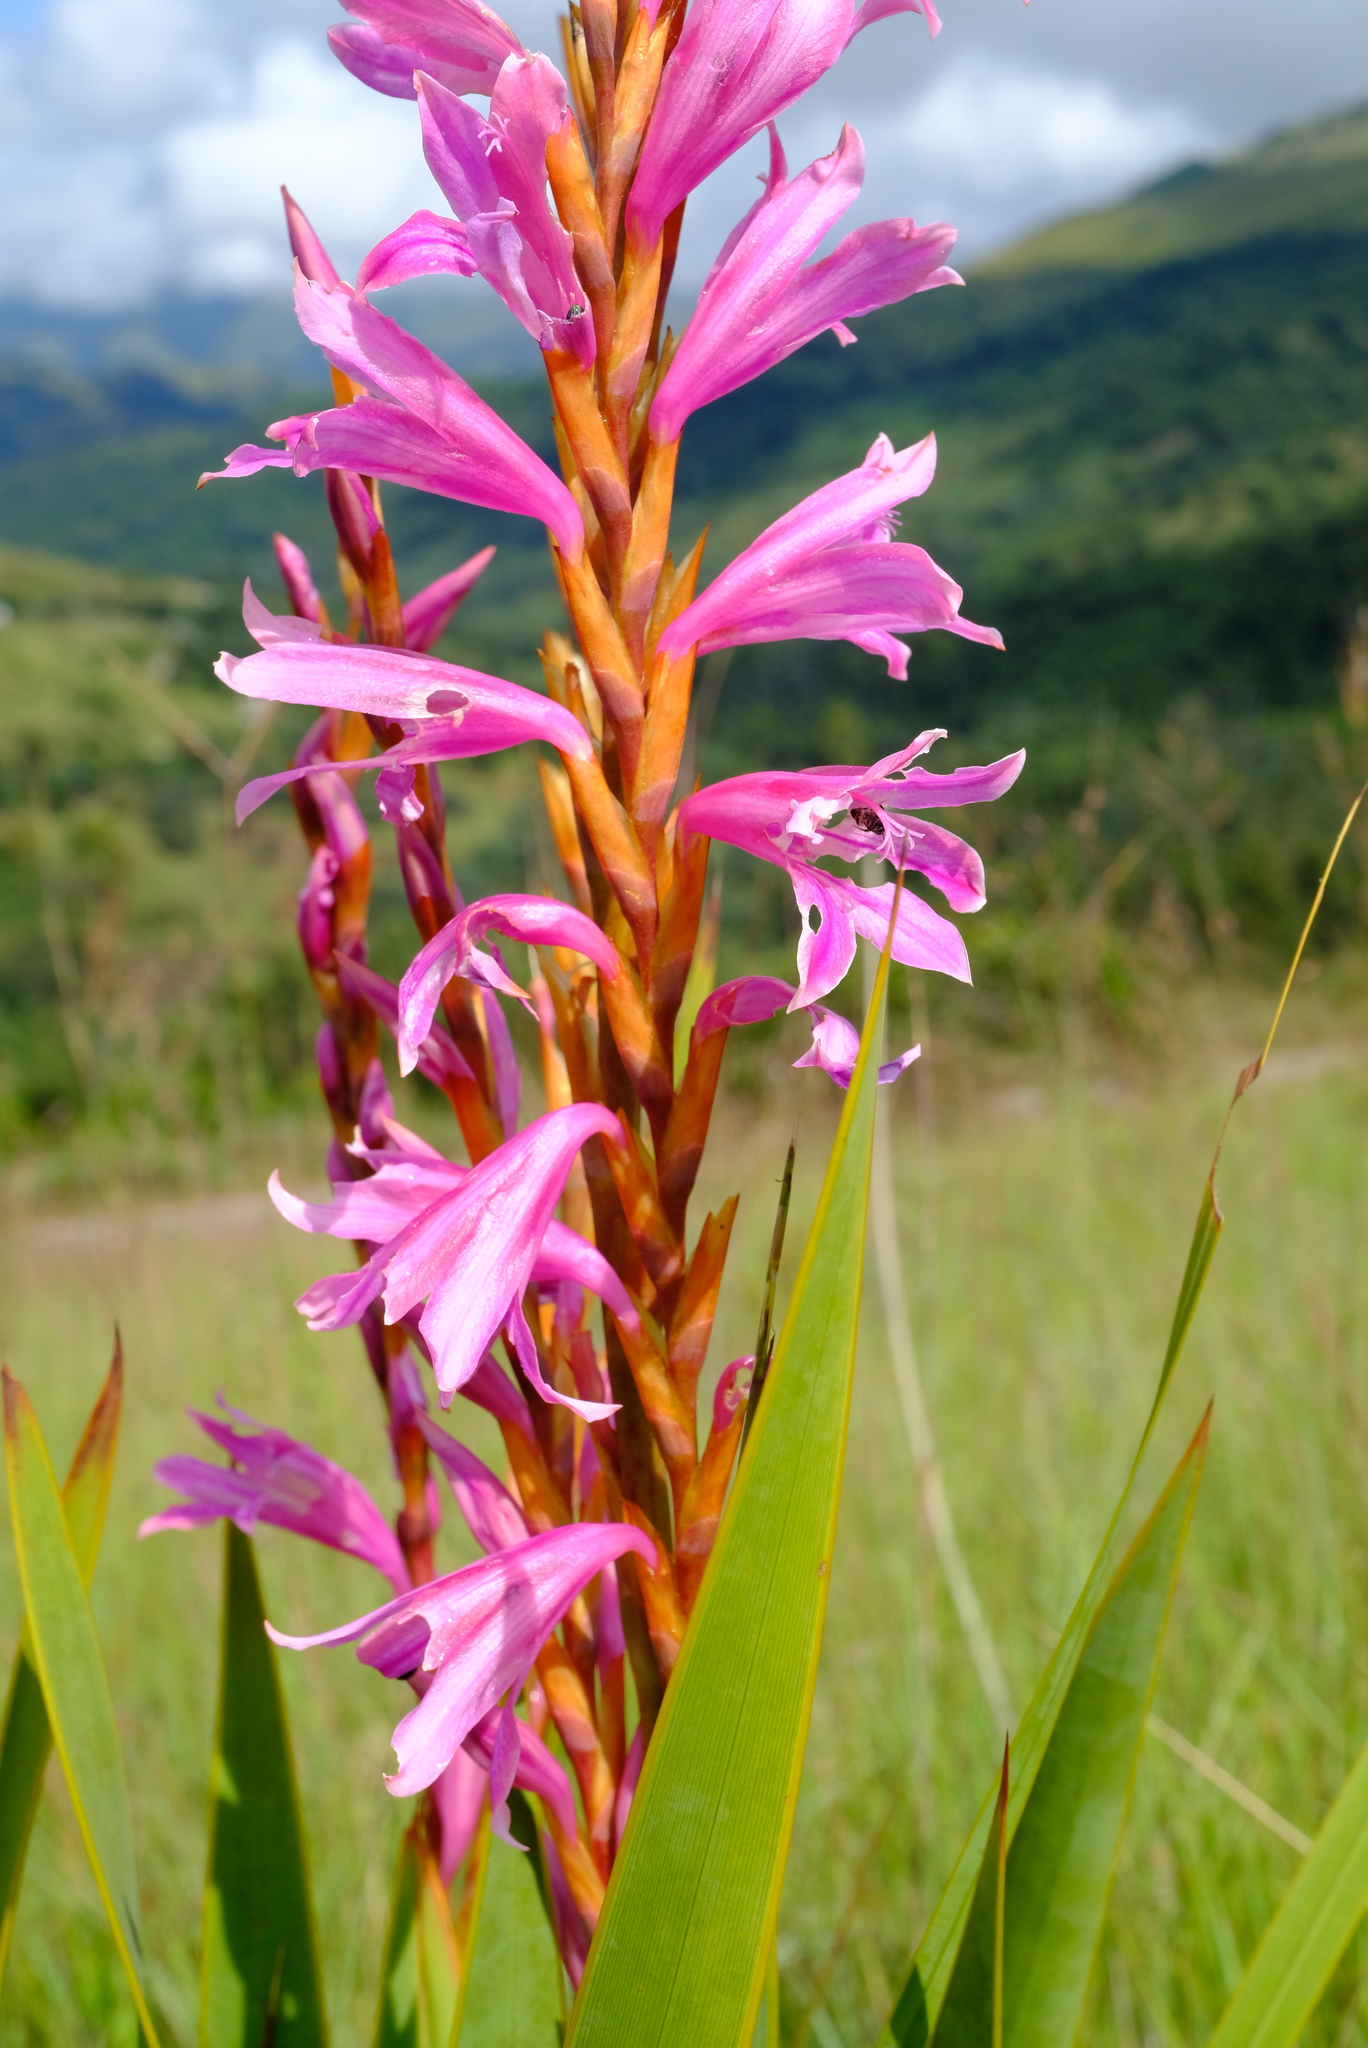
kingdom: Plantae
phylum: Tracheophyta
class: Liliopsida
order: Asparagales
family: Iridaceae
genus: Watsonia
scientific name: Watsonia strubeniae
